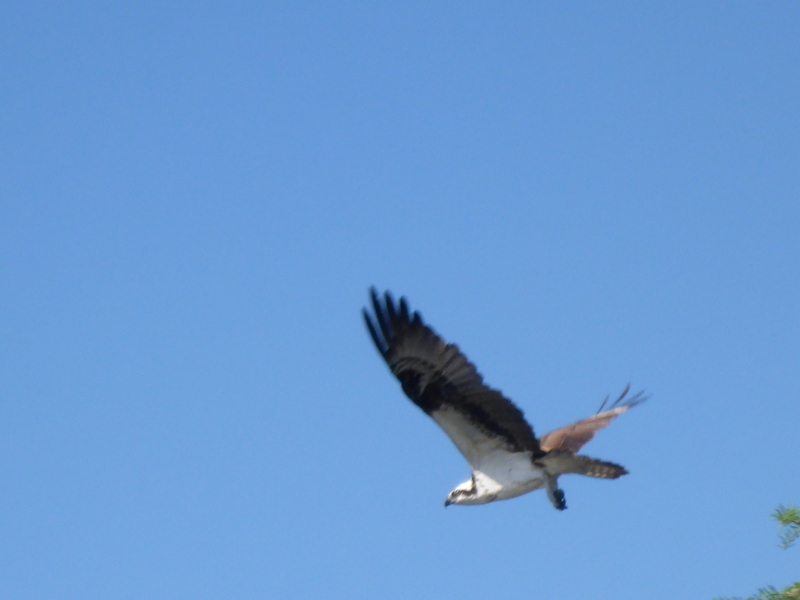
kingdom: Animalia
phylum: Chordata
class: Aves
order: Accipitriformes
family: Pandionidae
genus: Pandion
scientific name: Pandion haliaetus
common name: Osprey
